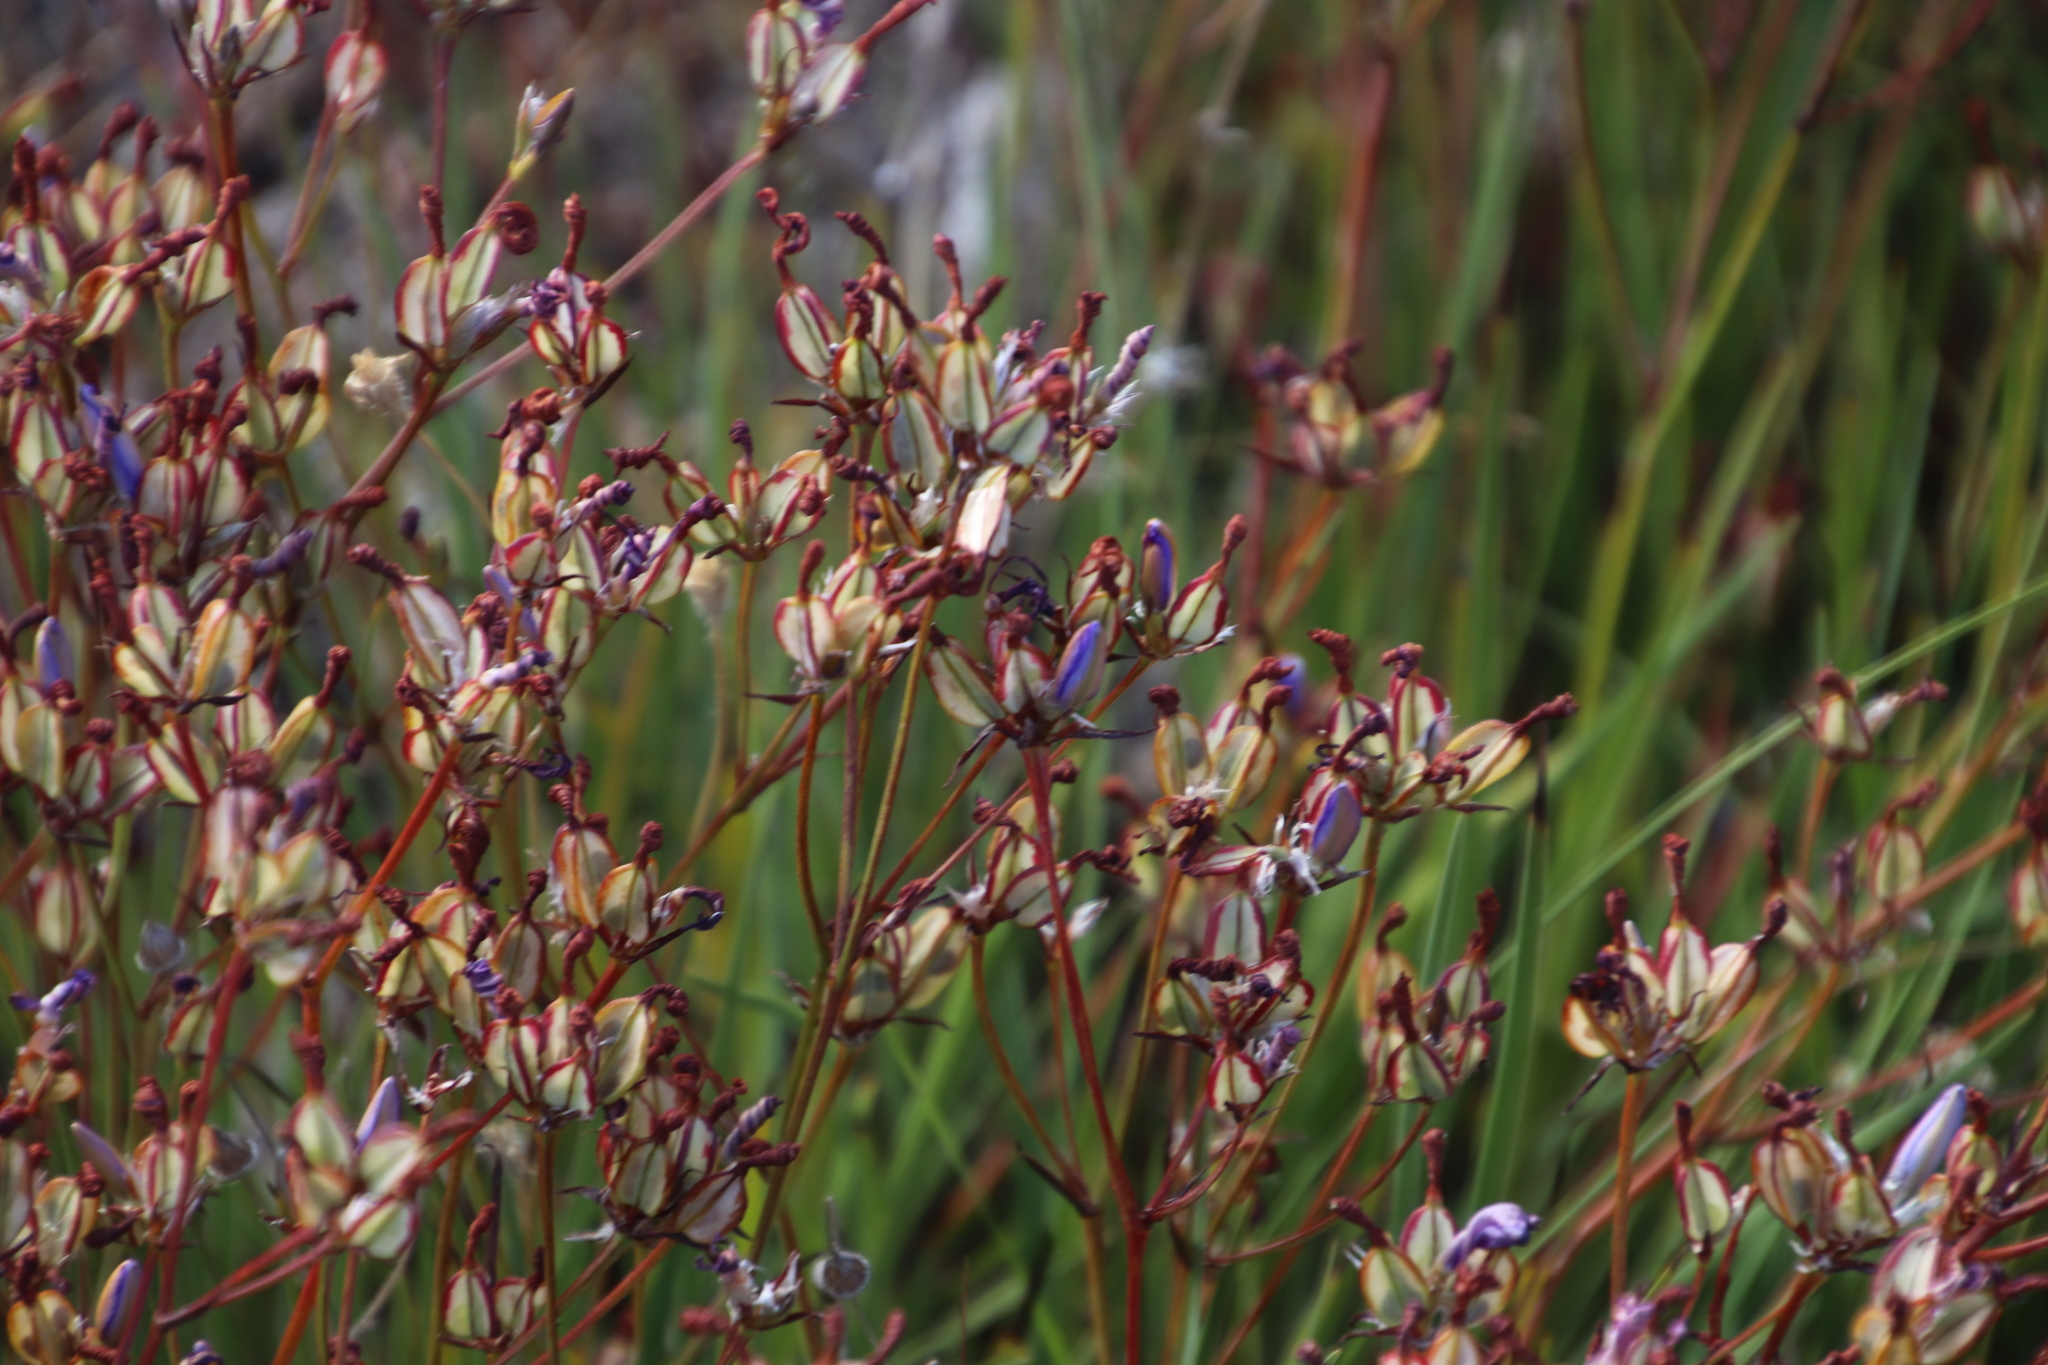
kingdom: Plantae
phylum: Tracheophyta
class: Liliopsida
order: Asparagales
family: Iridaceae
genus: Aristea
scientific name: Aristea dichotoma
